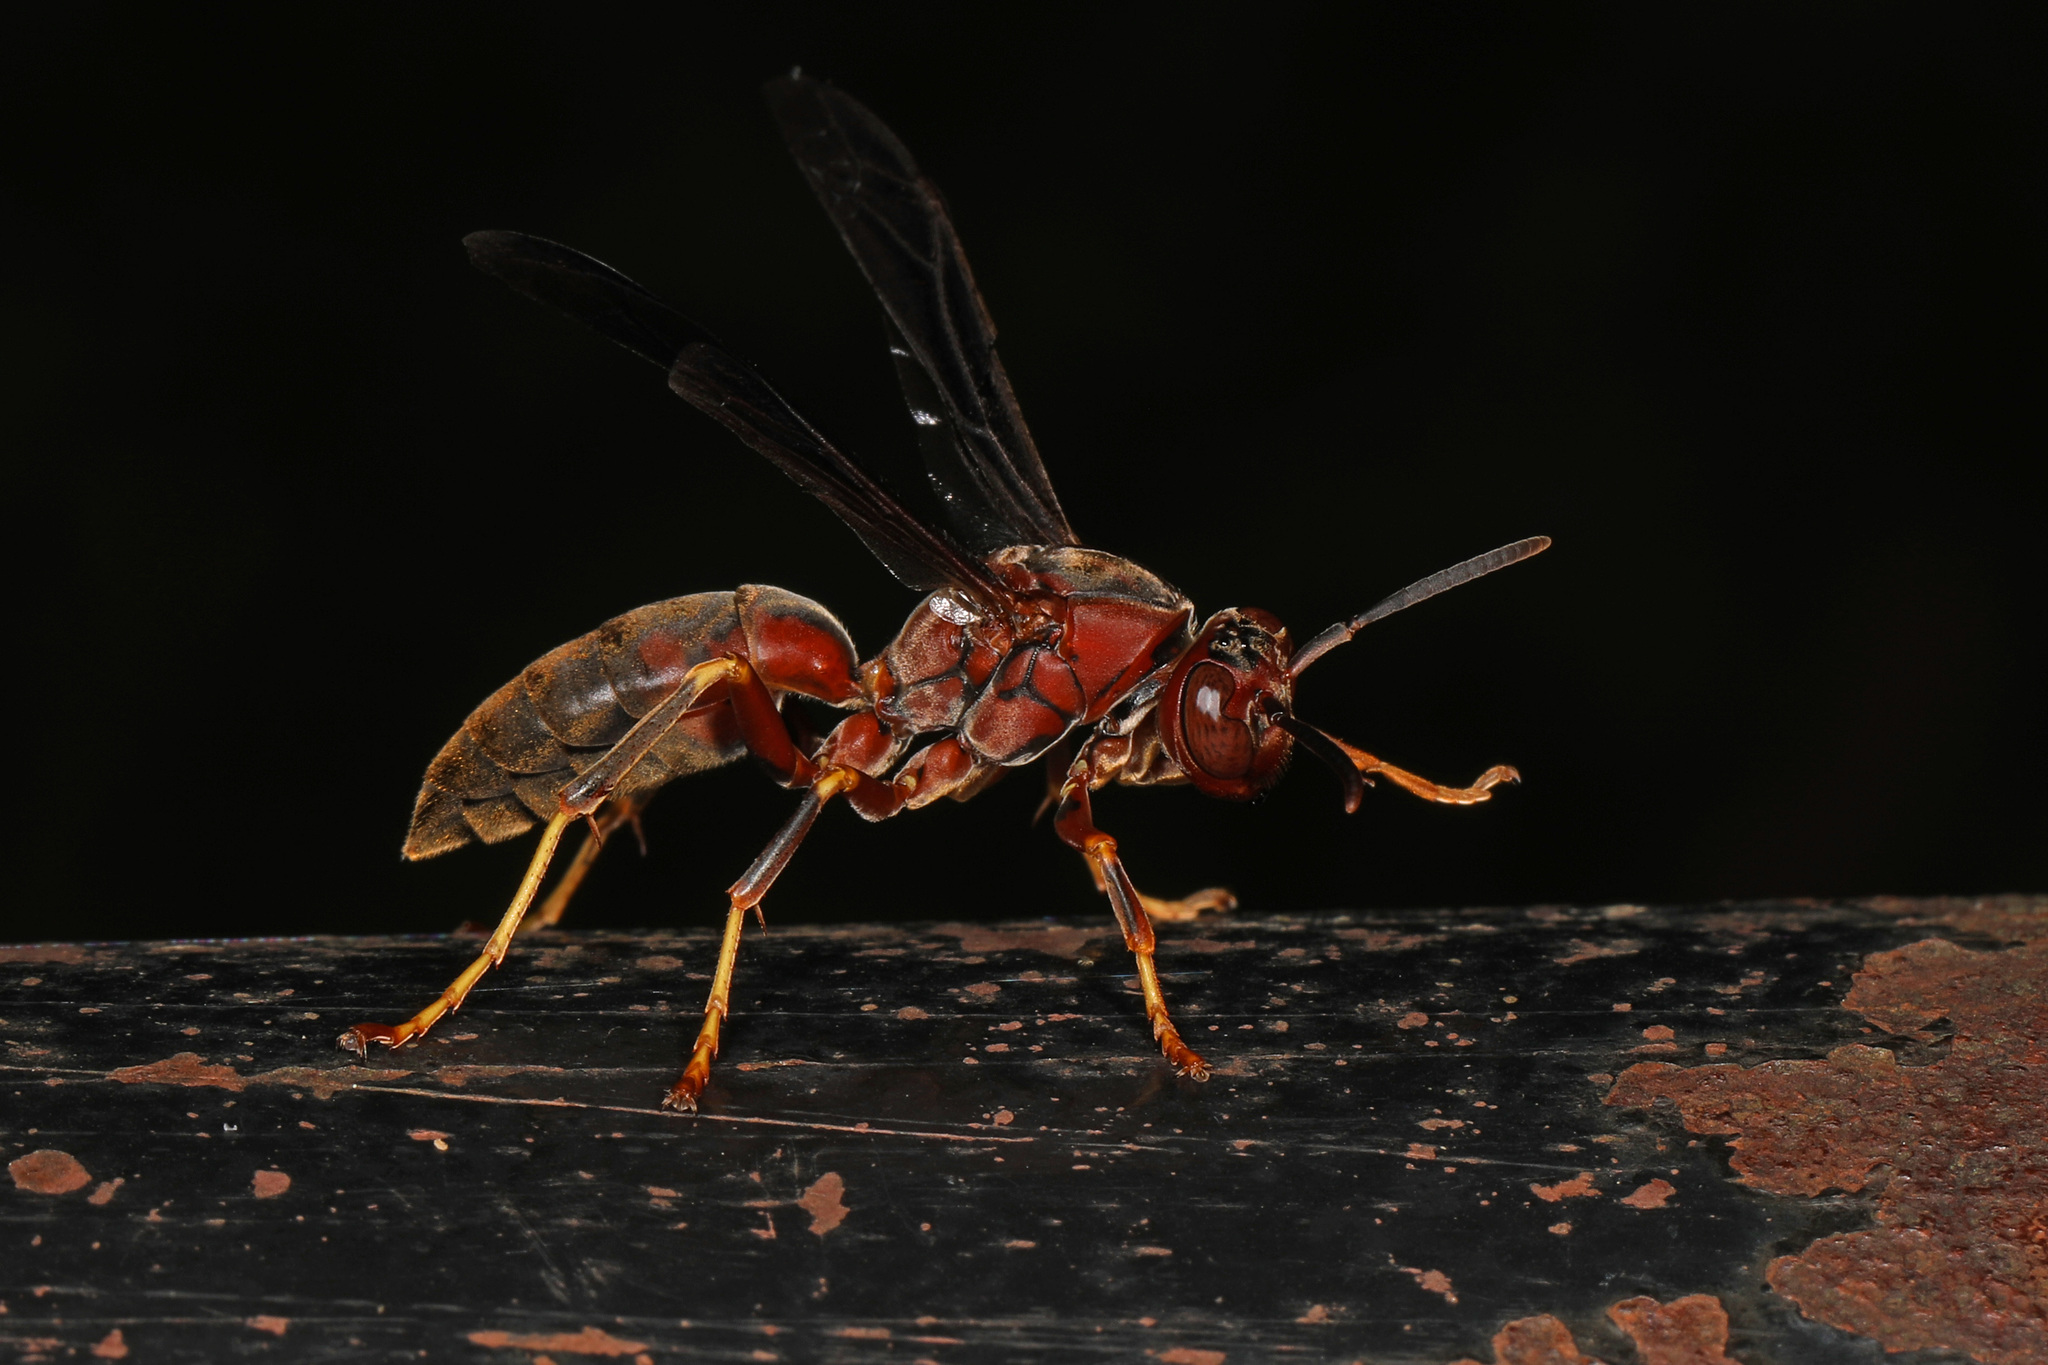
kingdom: Animalia
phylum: Arthropoda
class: Insecta
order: Hymenoptera
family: Eumenidae
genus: Polistes
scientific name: Polistes metricus
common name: Metric paper wasp
